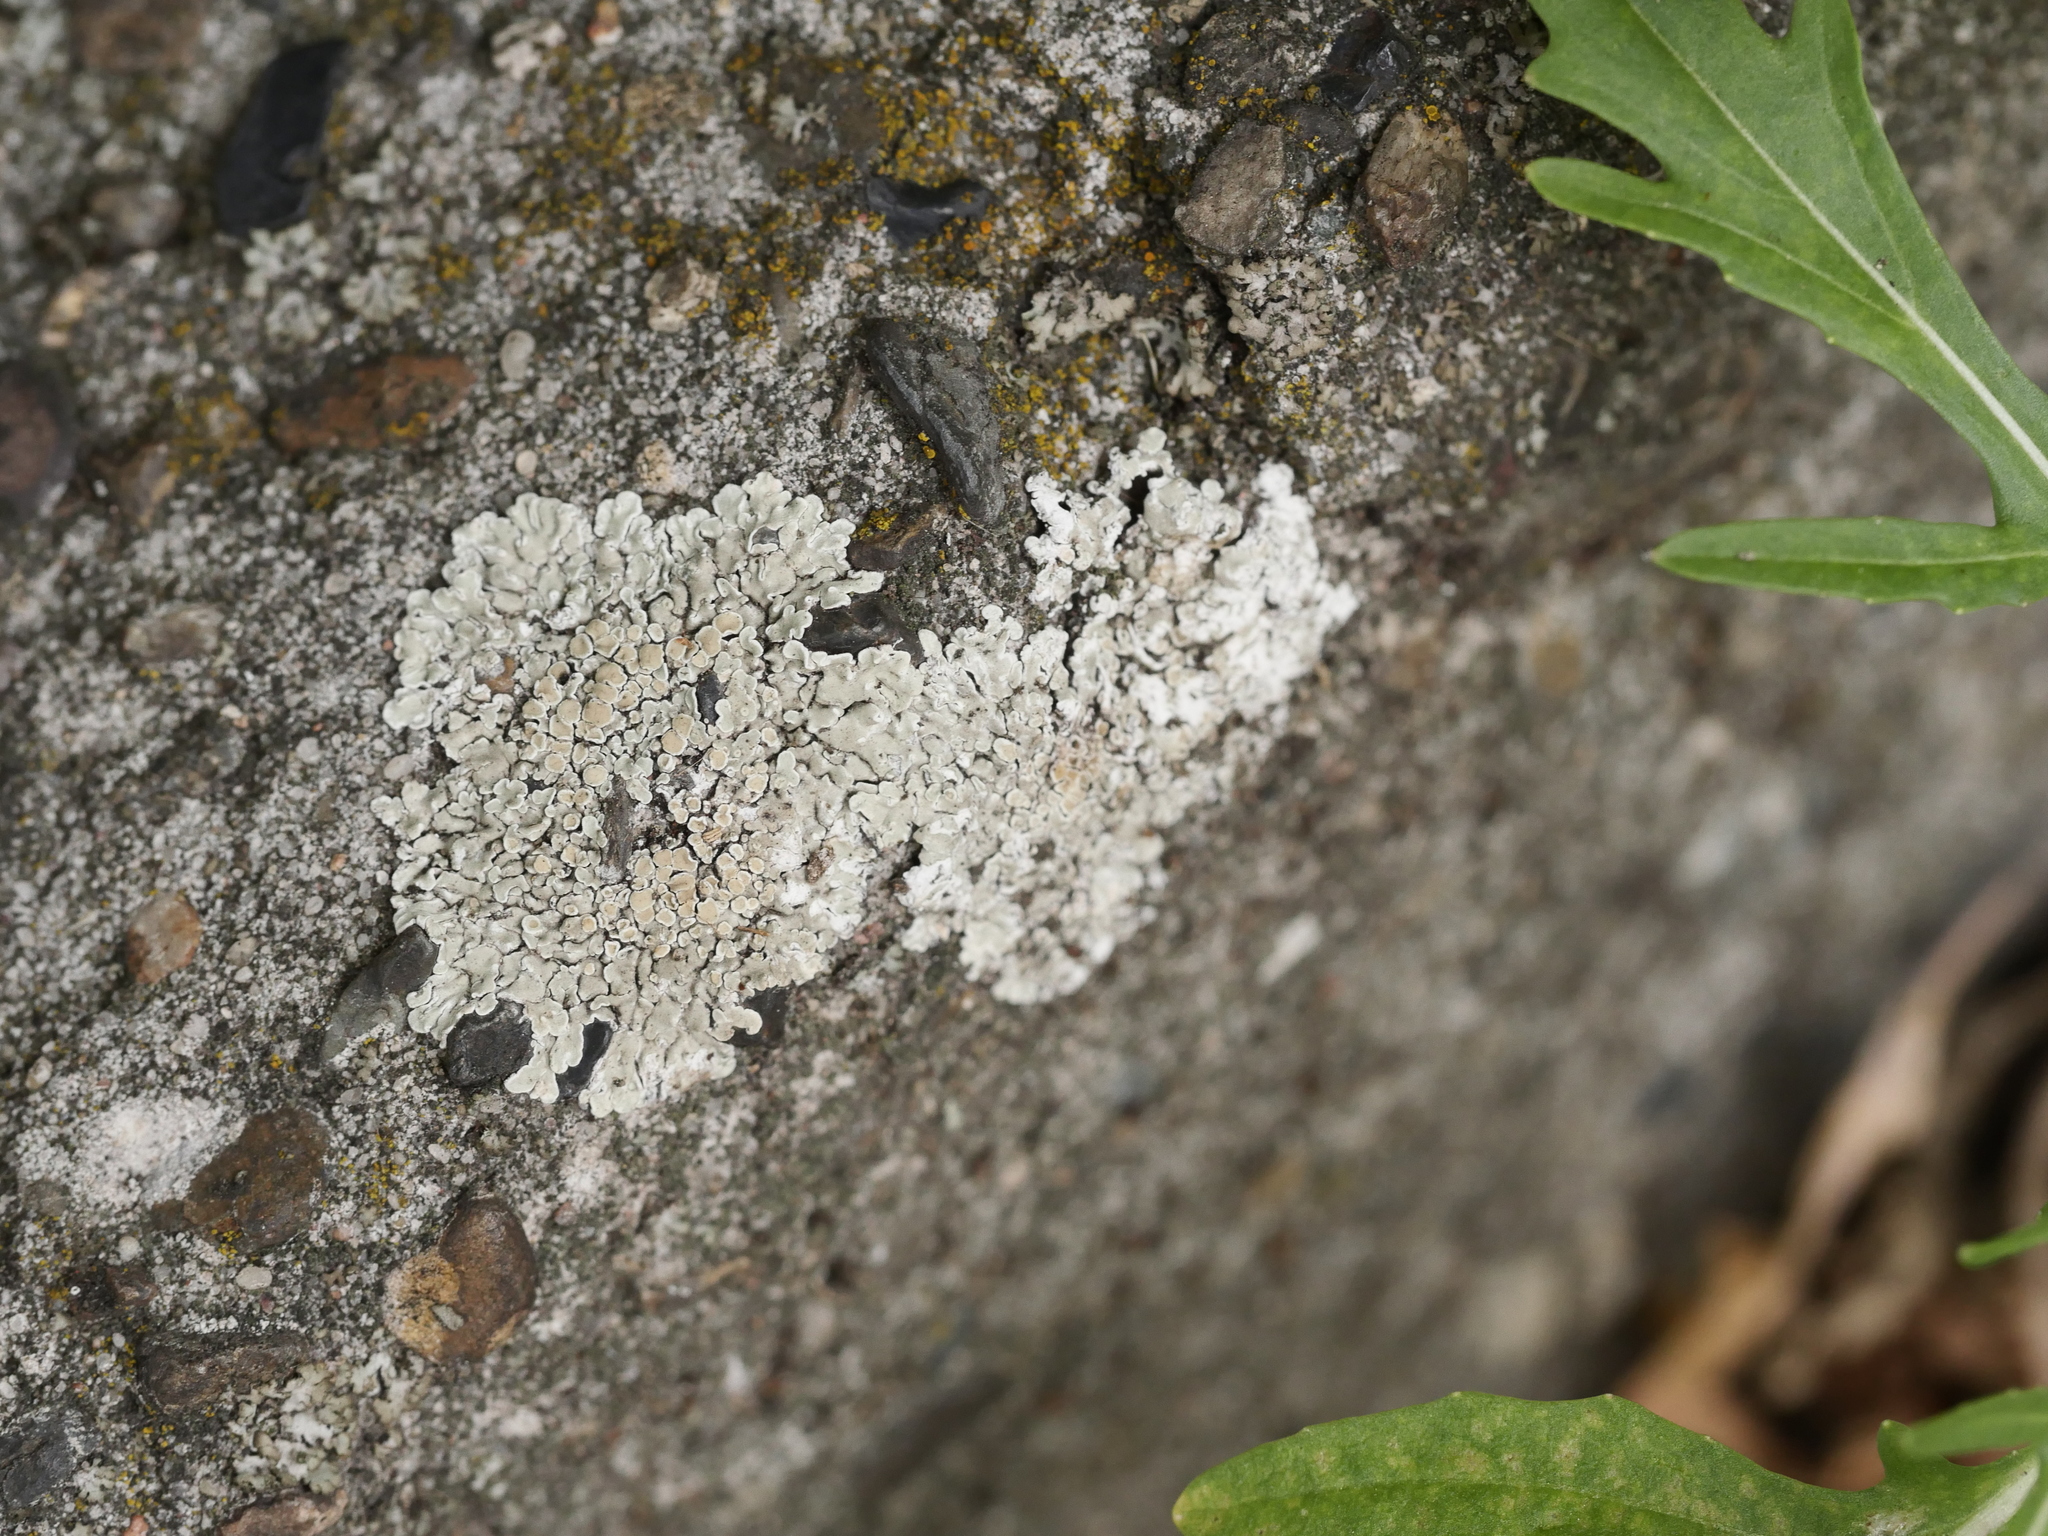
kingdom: Fungi
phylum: Ascomycota
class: Lecanoromycetes
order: Lecanorales
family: Lecanoraceae
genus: Protoparmeliopsis
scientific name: Protoparmeliopsis muralis
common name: Stonewall rim lichen
